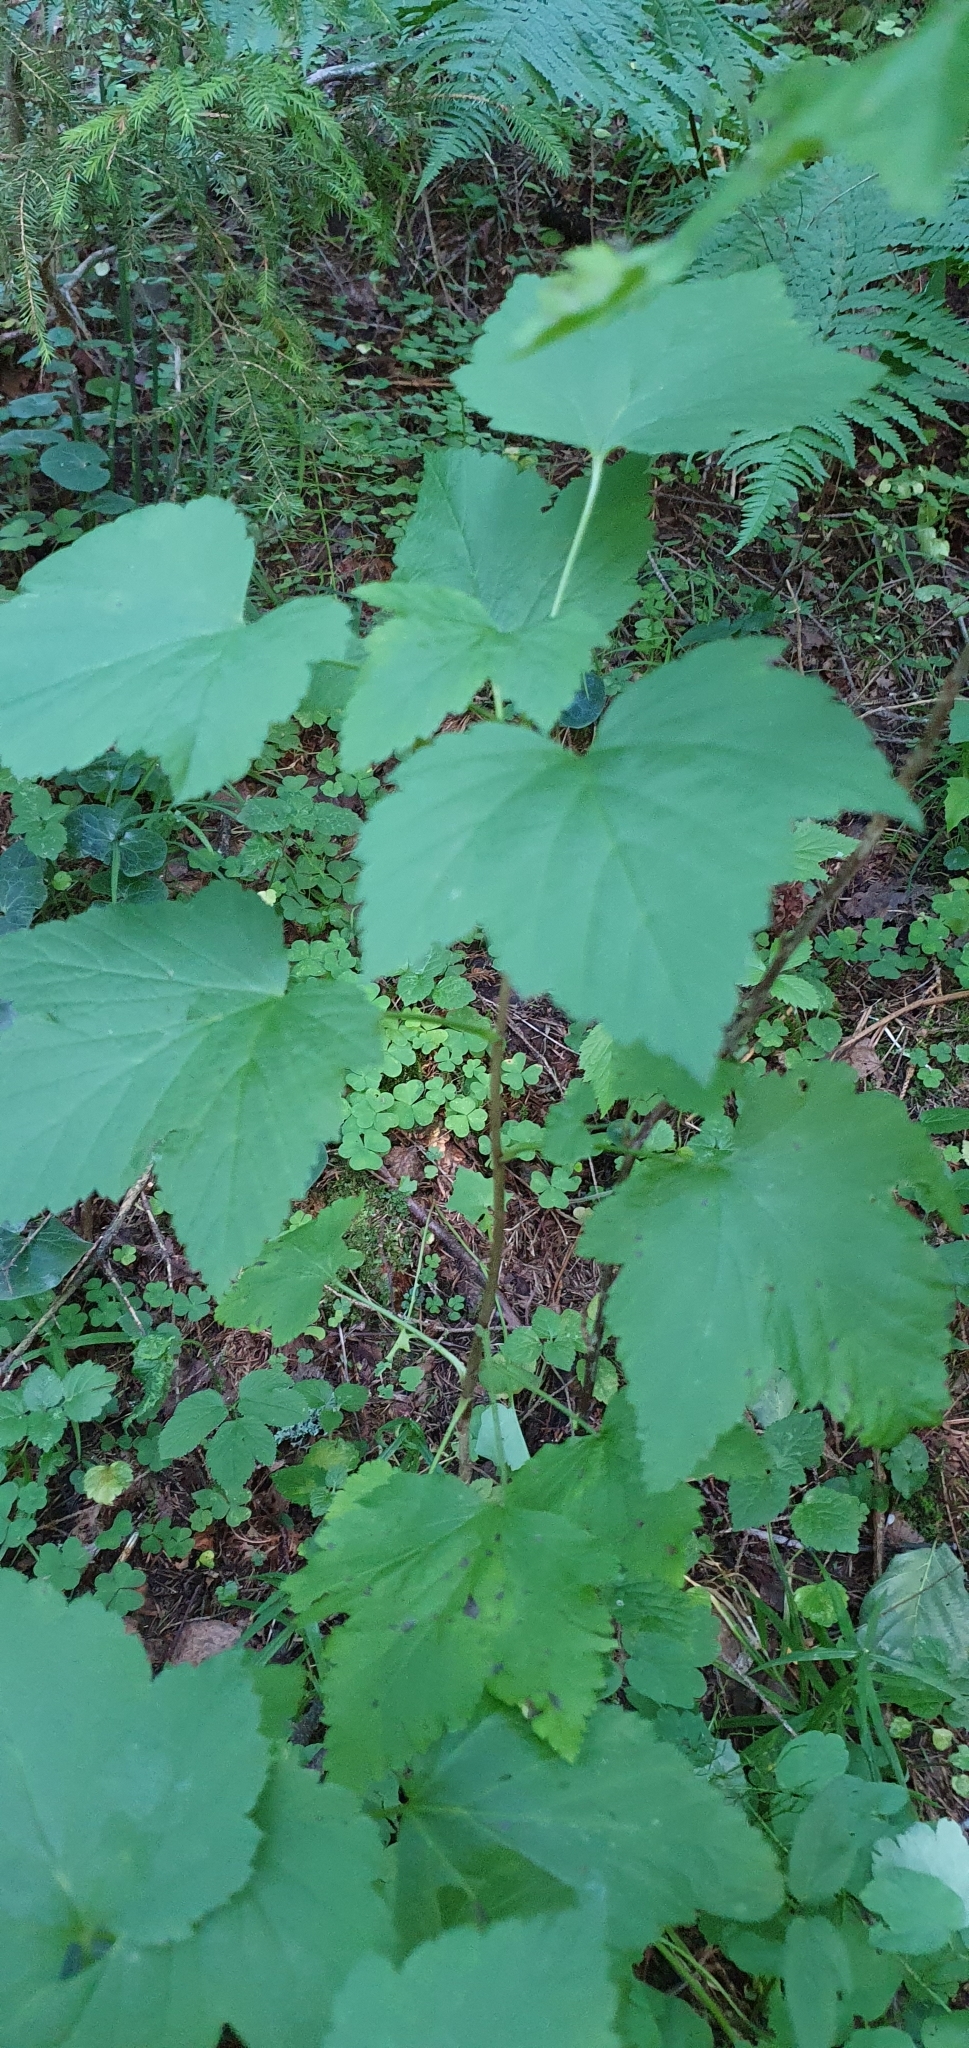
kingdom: Plantae
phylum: Tracheophyta
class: Magnoliopsida
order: Saxifragales
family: Grossulariaceae
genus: Ribes
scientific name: Ribes nigrum
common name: Black currant
